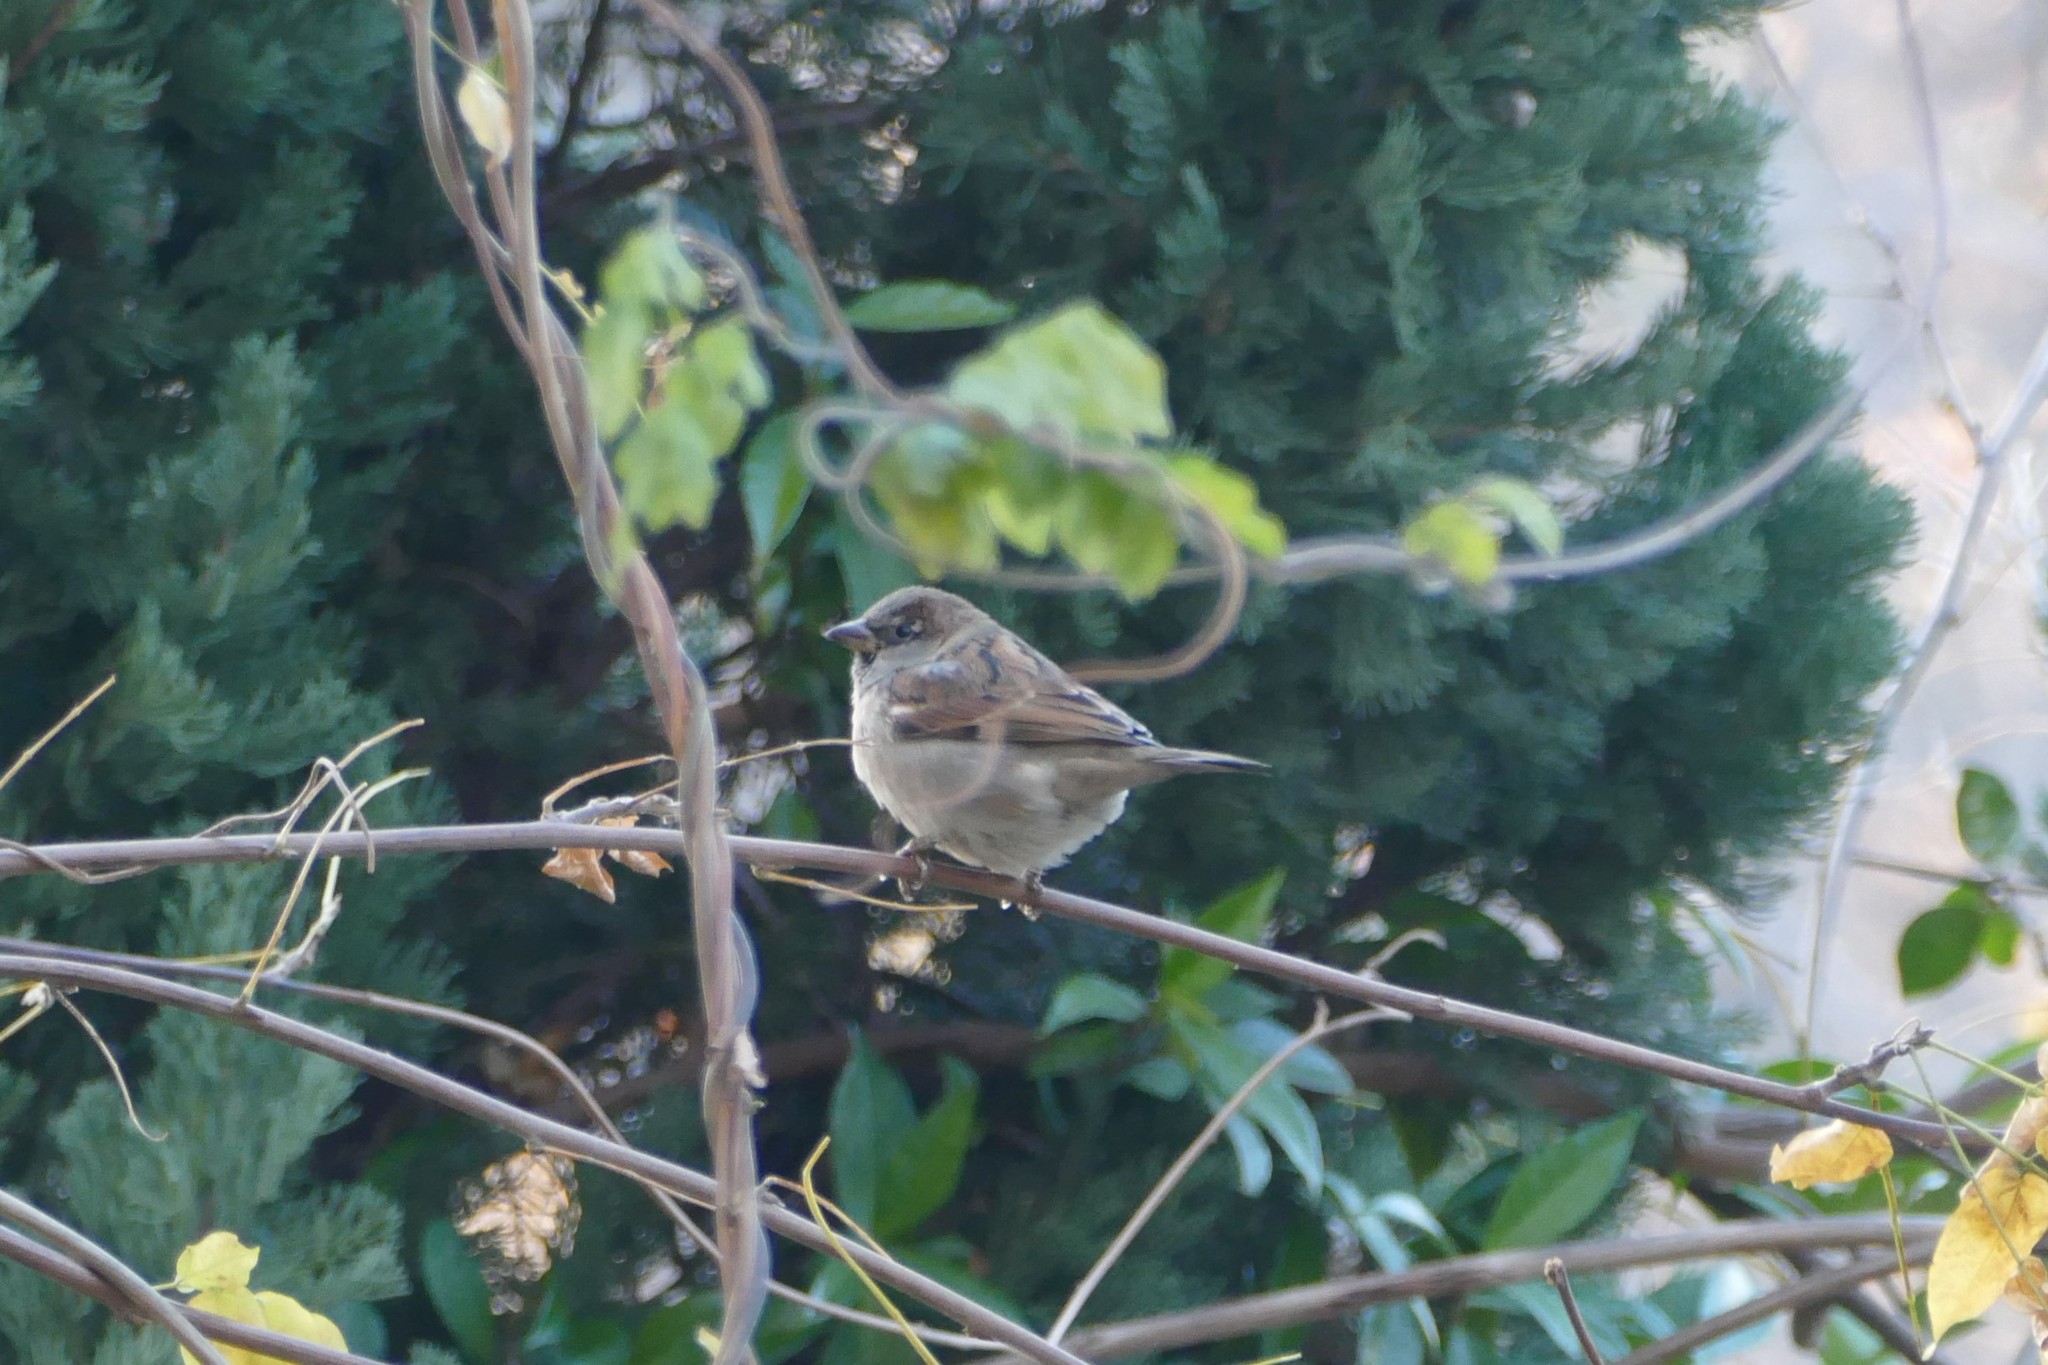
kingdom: Animalia
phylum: Chordata
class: Aves
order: Passeriformes
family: Passeridae
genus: Passer
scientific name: Passer domesticus
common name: House sparrow
